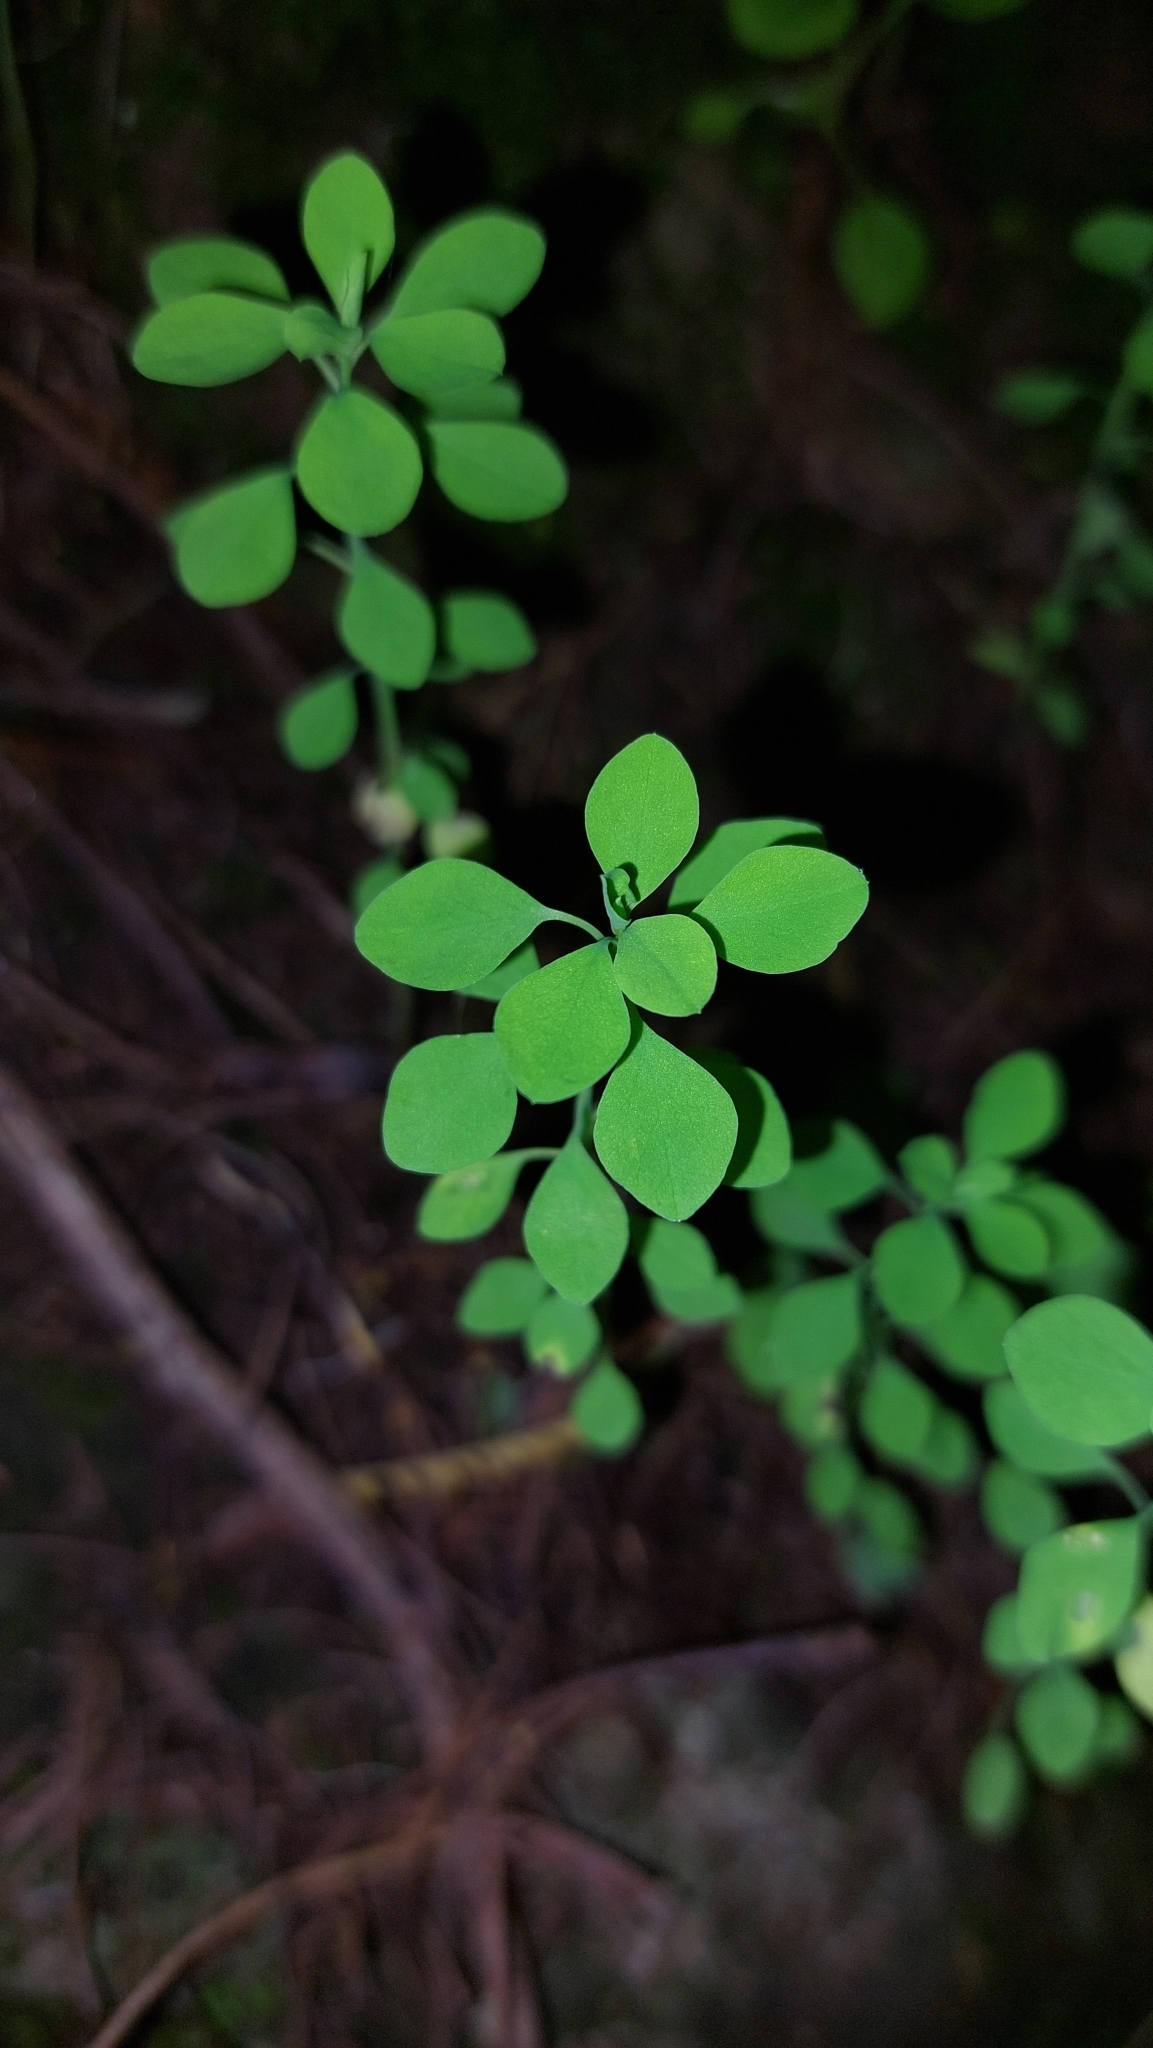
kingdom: Plantae
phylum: Tracheophyta
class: Magnoliopsida
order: Malpighiales
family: Euphorbiaceae
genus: Euphorbia
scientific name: Euphorbia peplus
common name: Petty spurge
